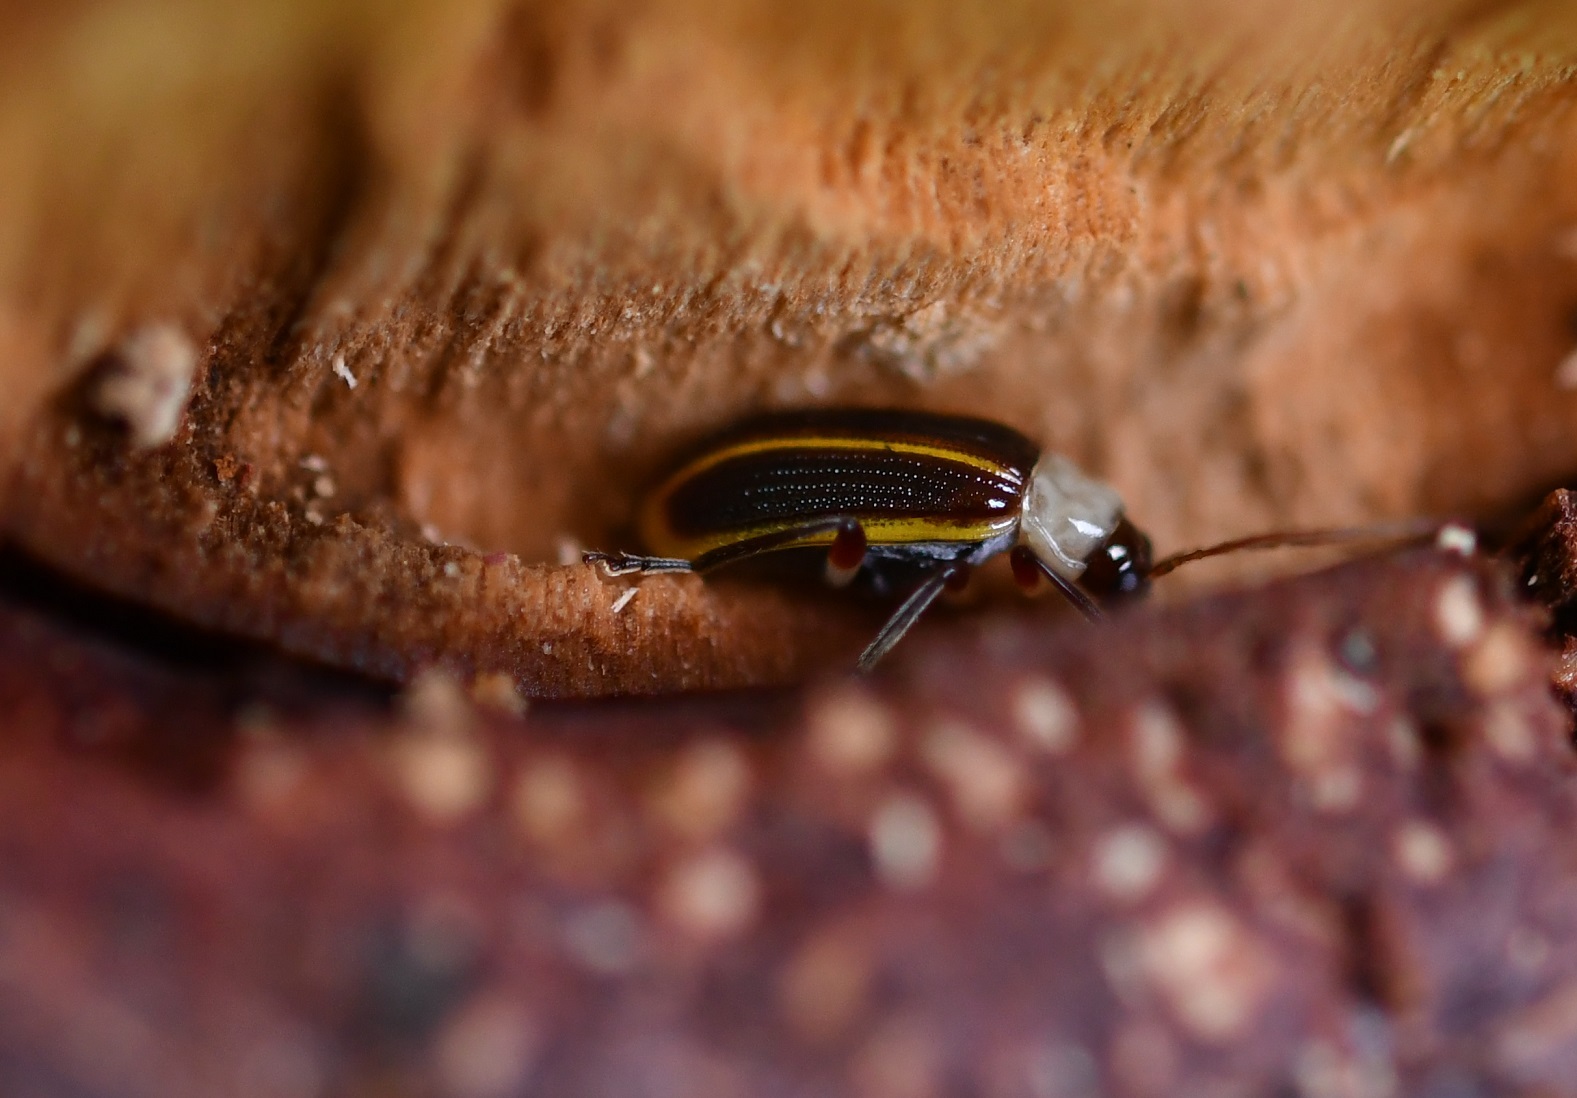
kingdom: Animalia
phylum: Arthropoda
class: Insecta
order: Coleoptera
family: Chrysomelidae
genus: Acalymma
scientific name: Acalymma
